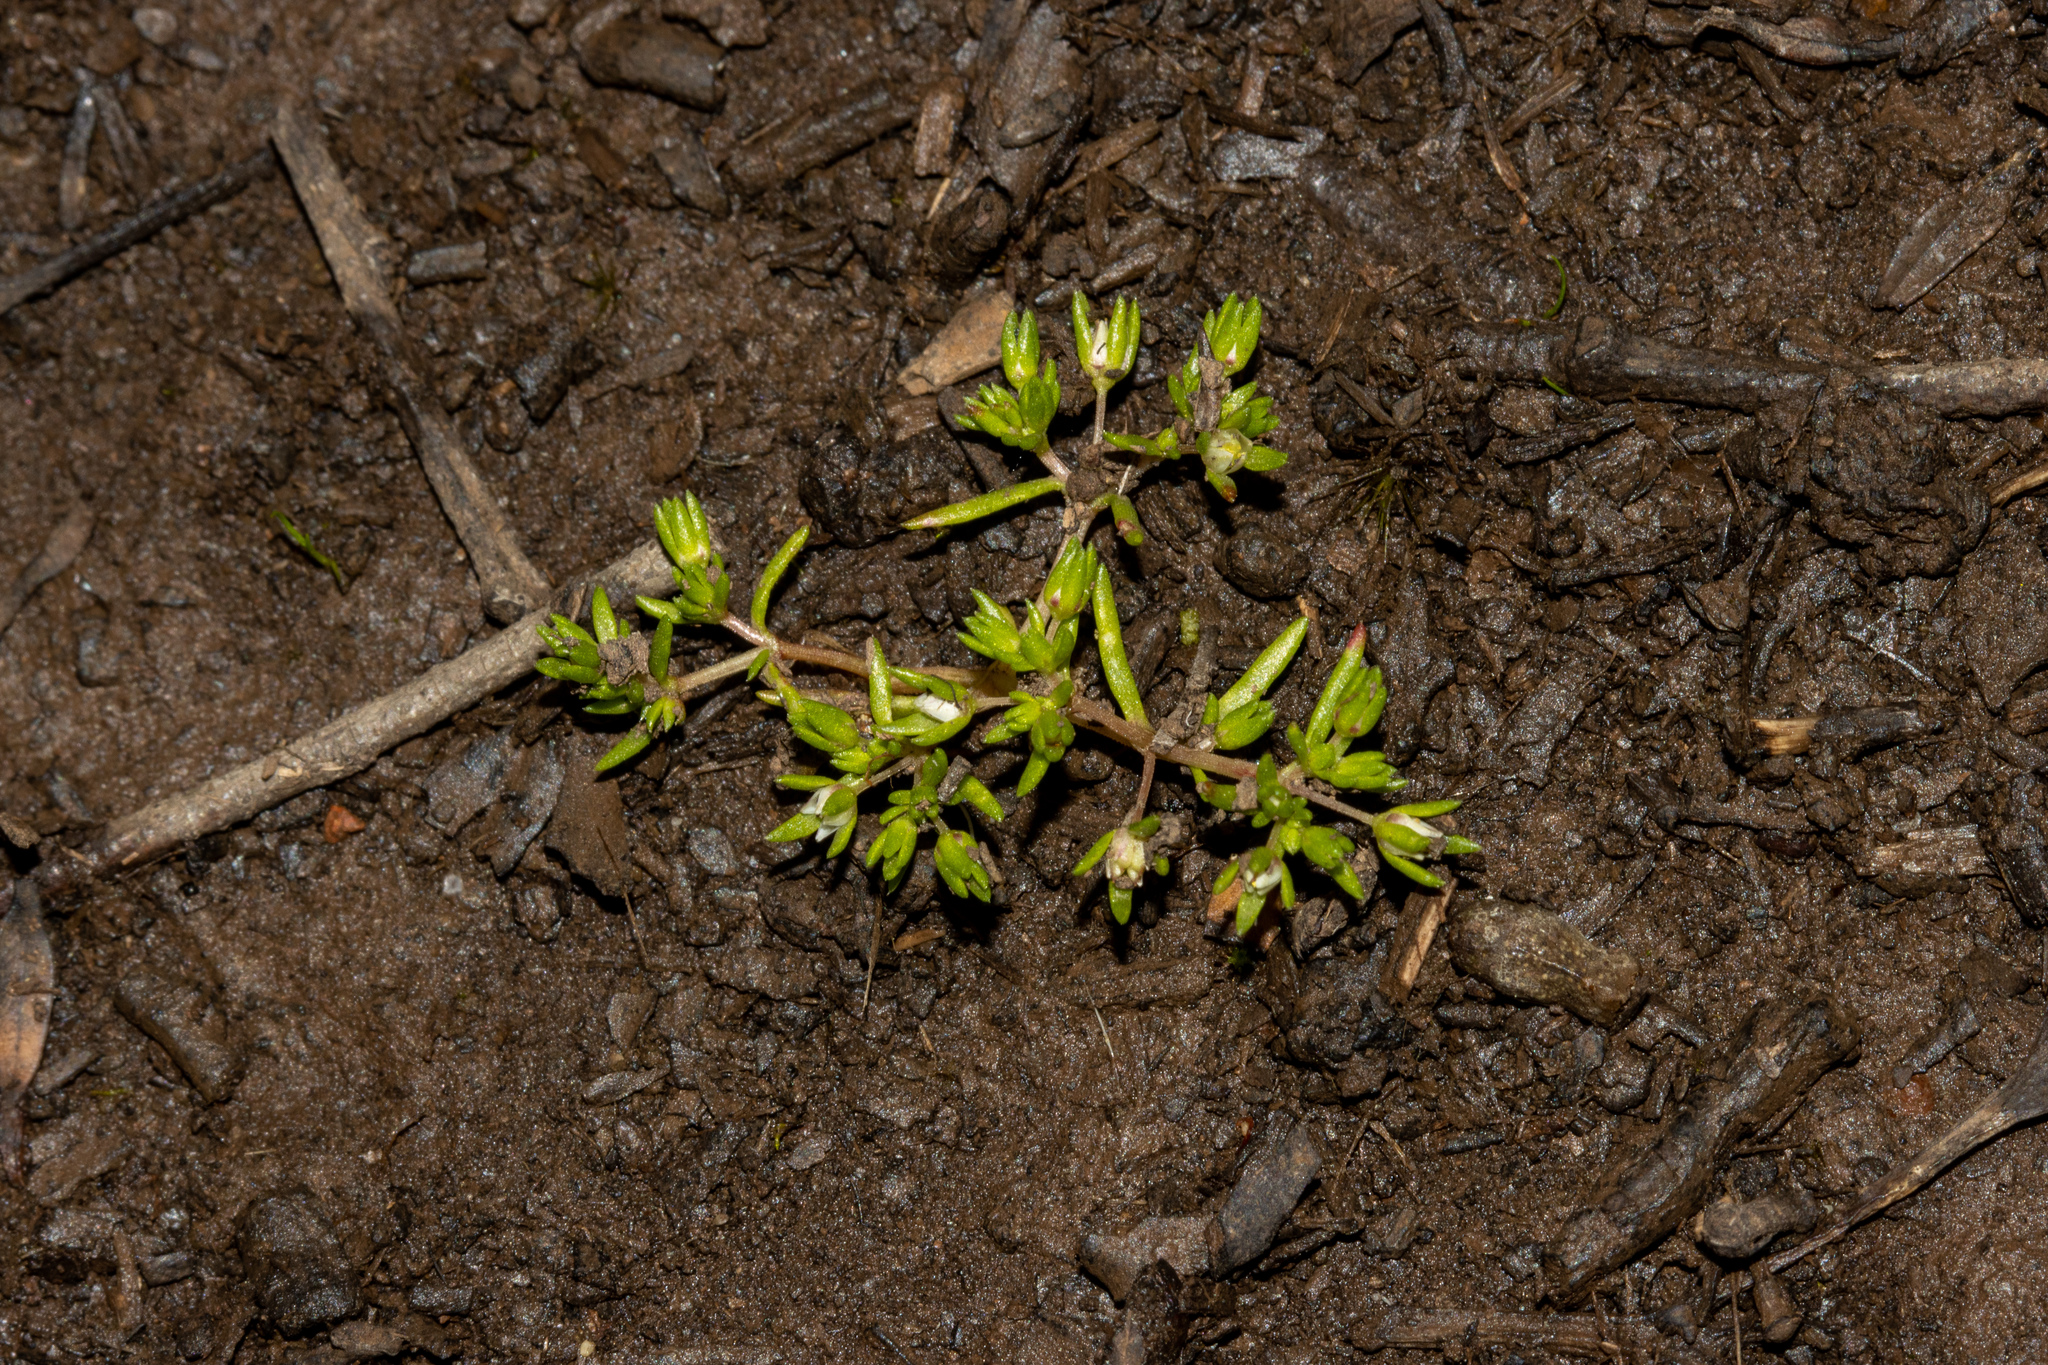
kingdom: Plantae
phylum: Tracheophyta
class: Magnoliopsida
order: Saxifragales
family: Crassulaceae
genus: Crassula
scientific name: Crassula decumbens
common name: Scilly pigmyweed
